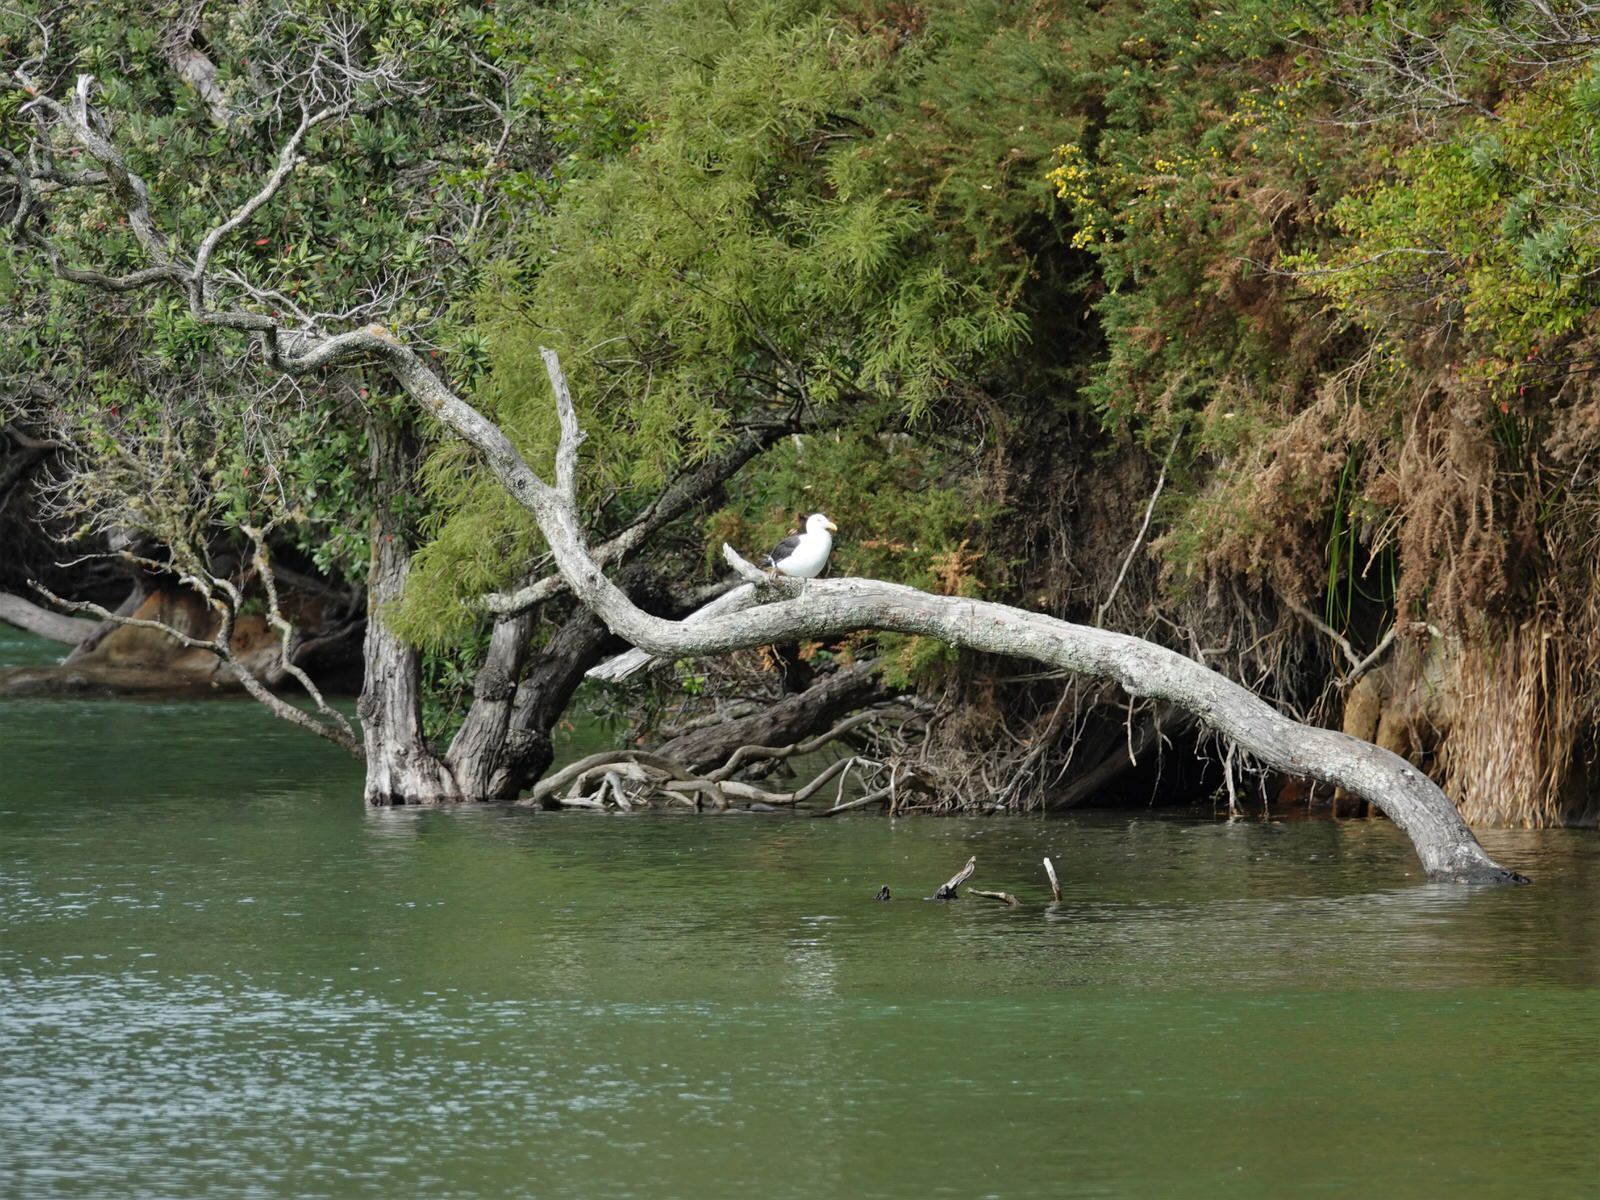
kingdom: Animalia
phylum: Chordata
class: Aves
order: Charadriiformes
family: Laridae
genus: Larus
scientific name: Larus dominicanus
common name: Kelp gull
